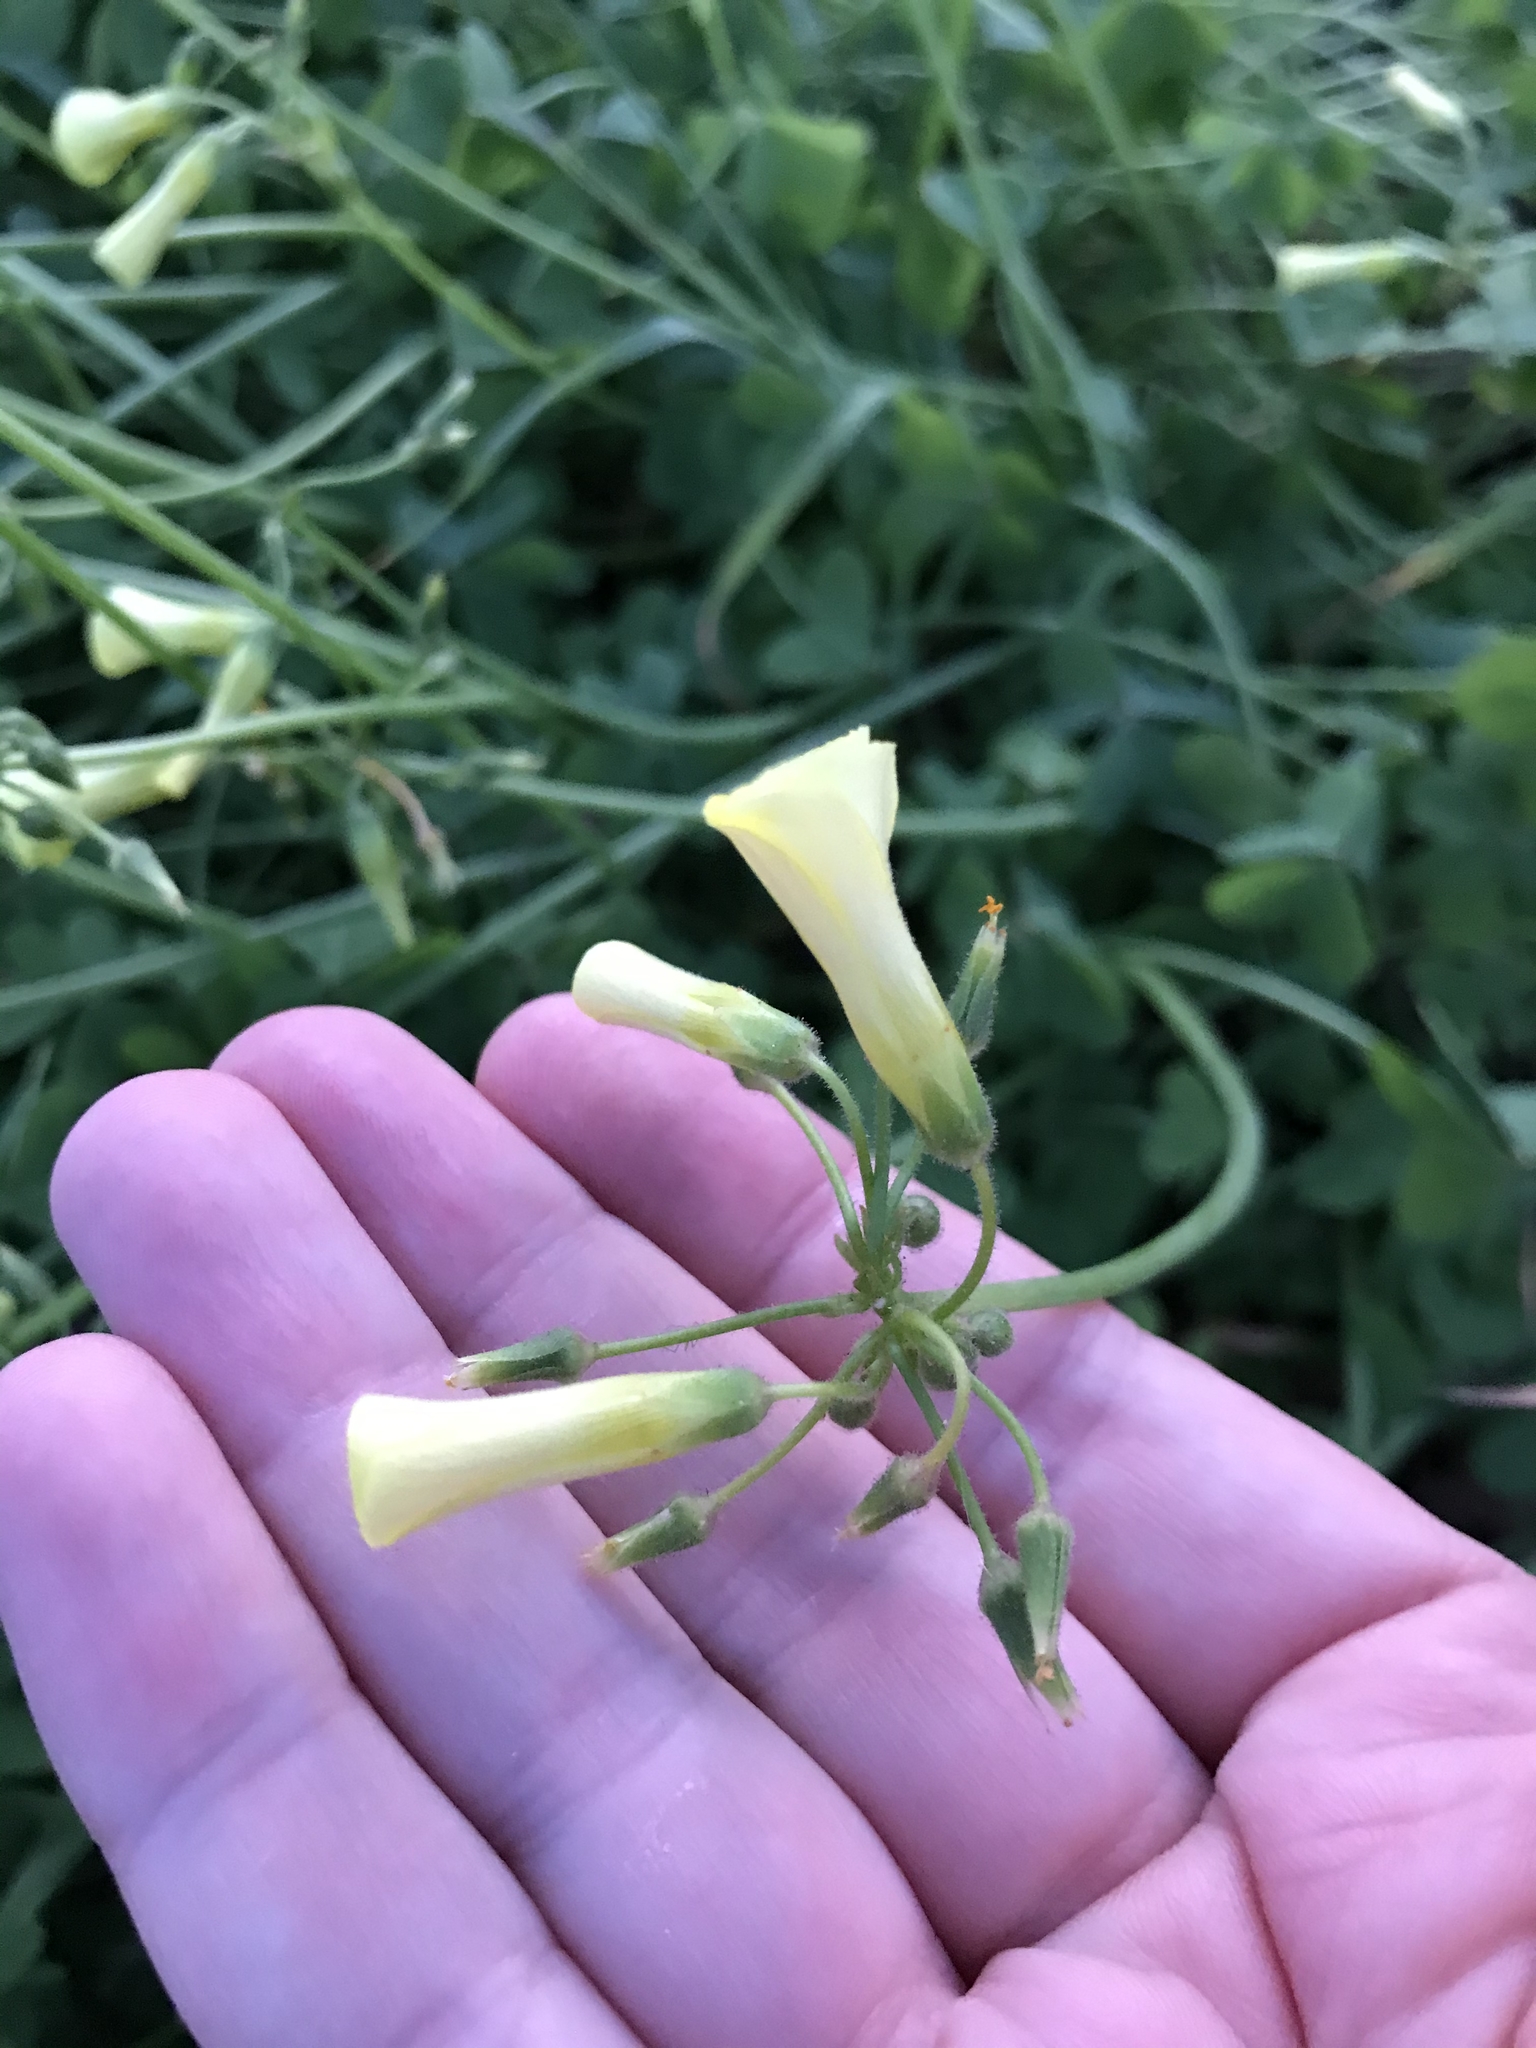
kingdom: Plantae
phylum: Tracheophyta
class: Magnoliopsida
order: Oxalidales
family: Oxalidaceae
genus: Oxalis
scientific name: Oxalis pes-caprae
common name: Bermuda-buttercup
